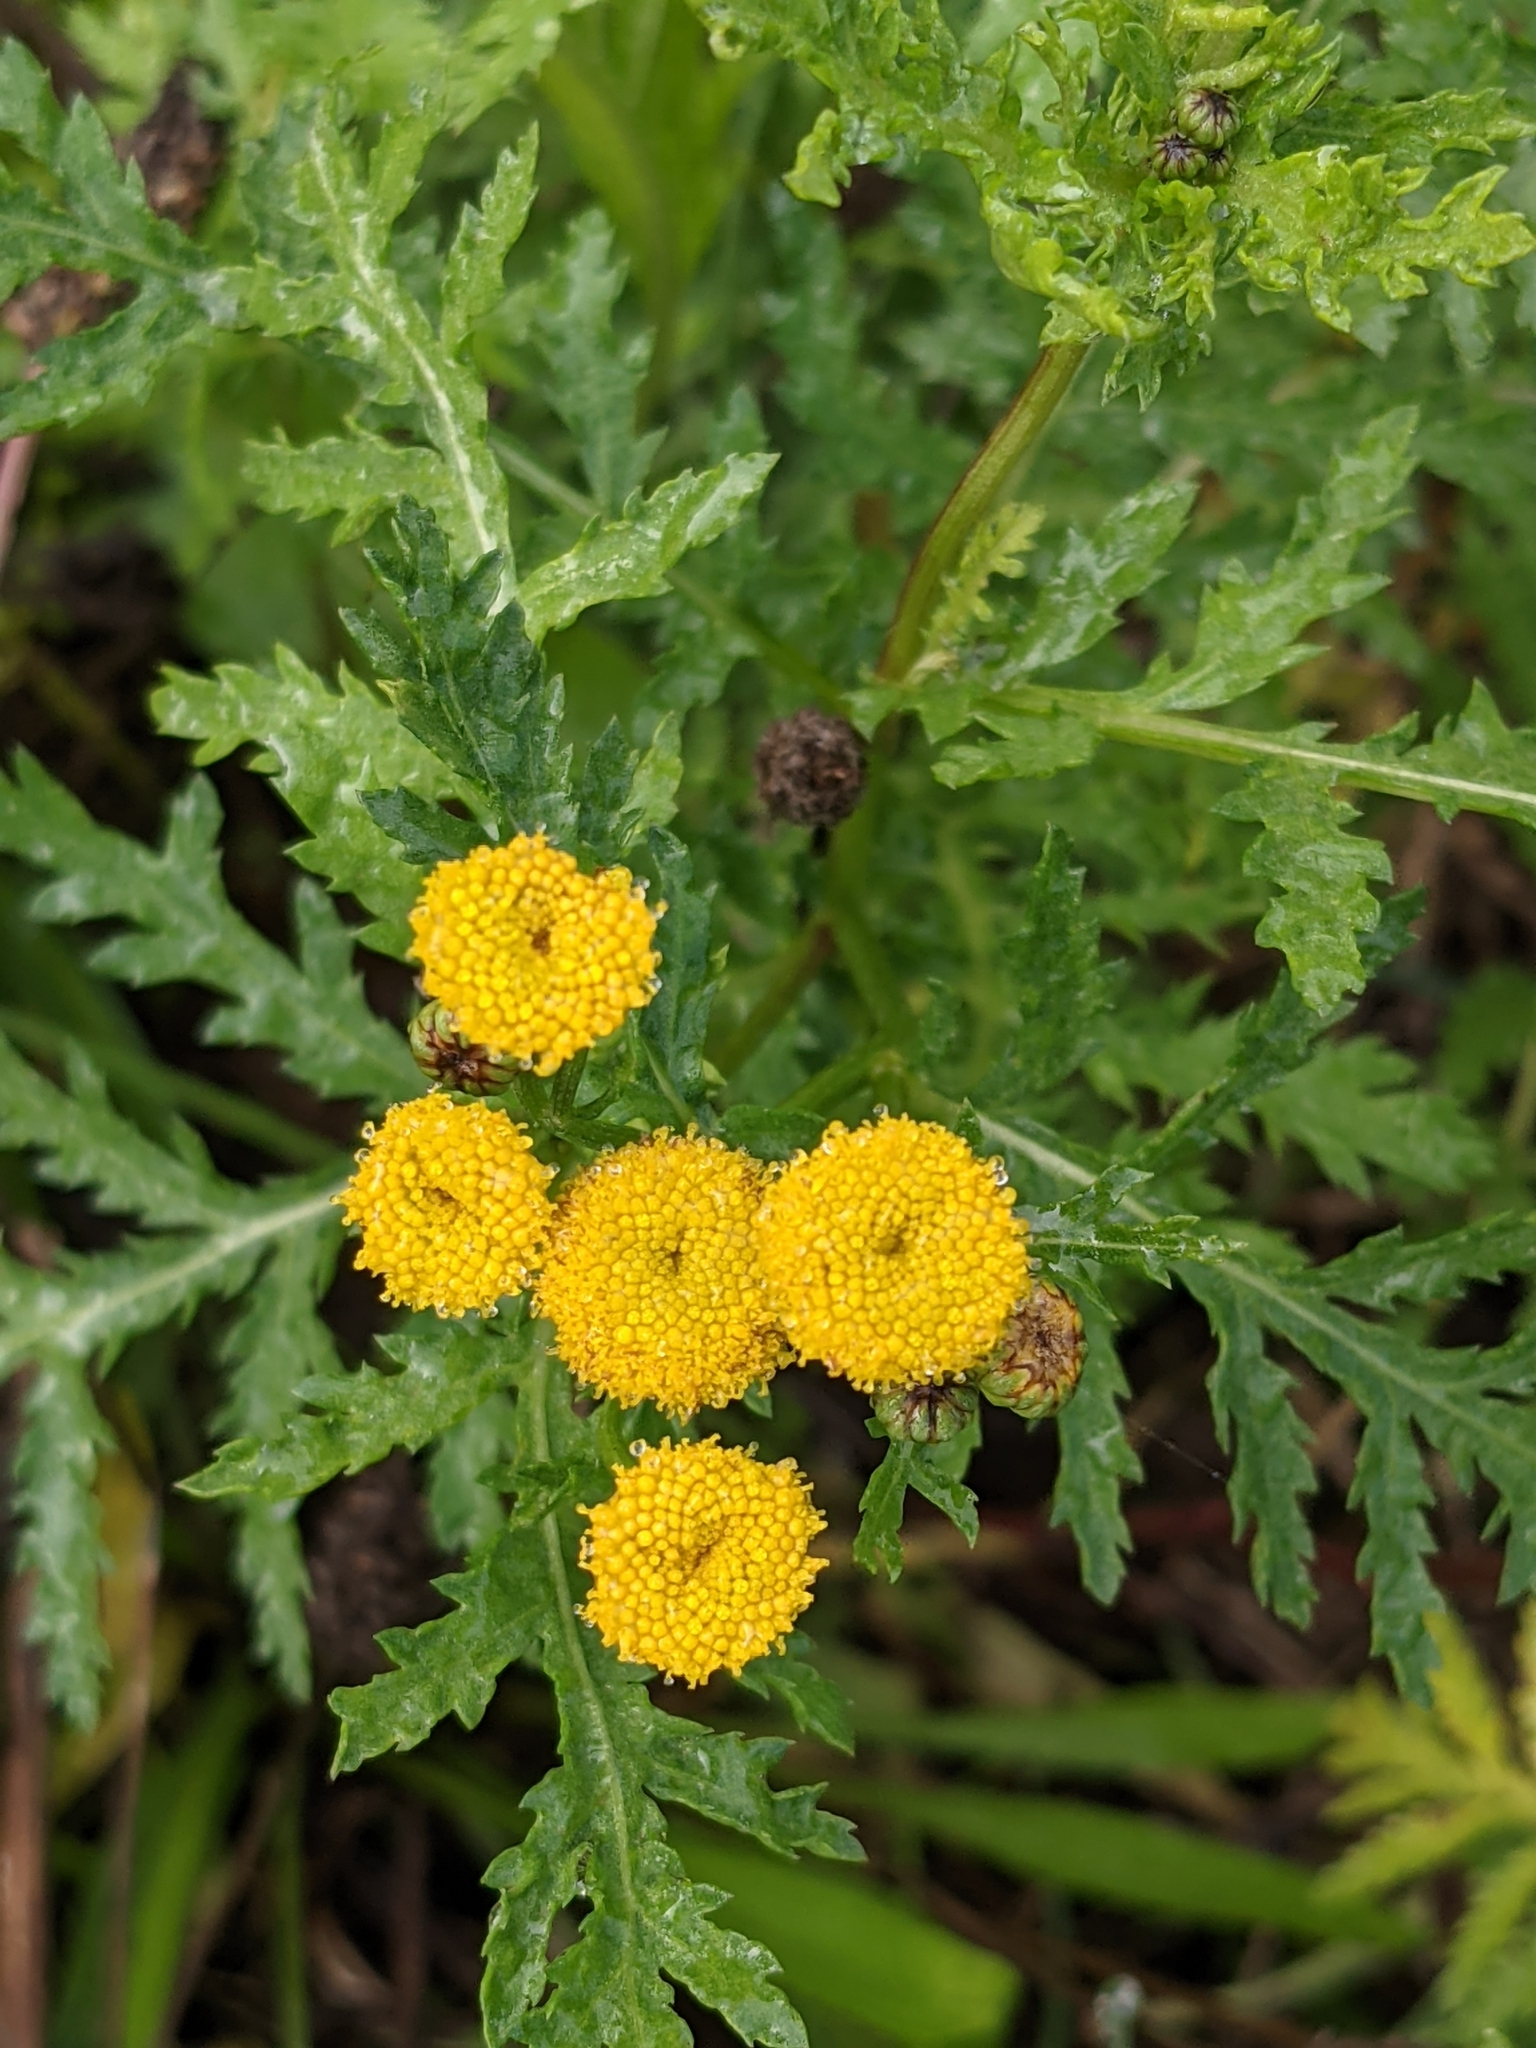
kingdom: Plantae
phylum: Tracheophyta
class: Magnoliopsida
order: Asterales
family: Asteraceae
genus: Tanacetum
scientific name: Tanacetum vulgare
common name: Common tansy
